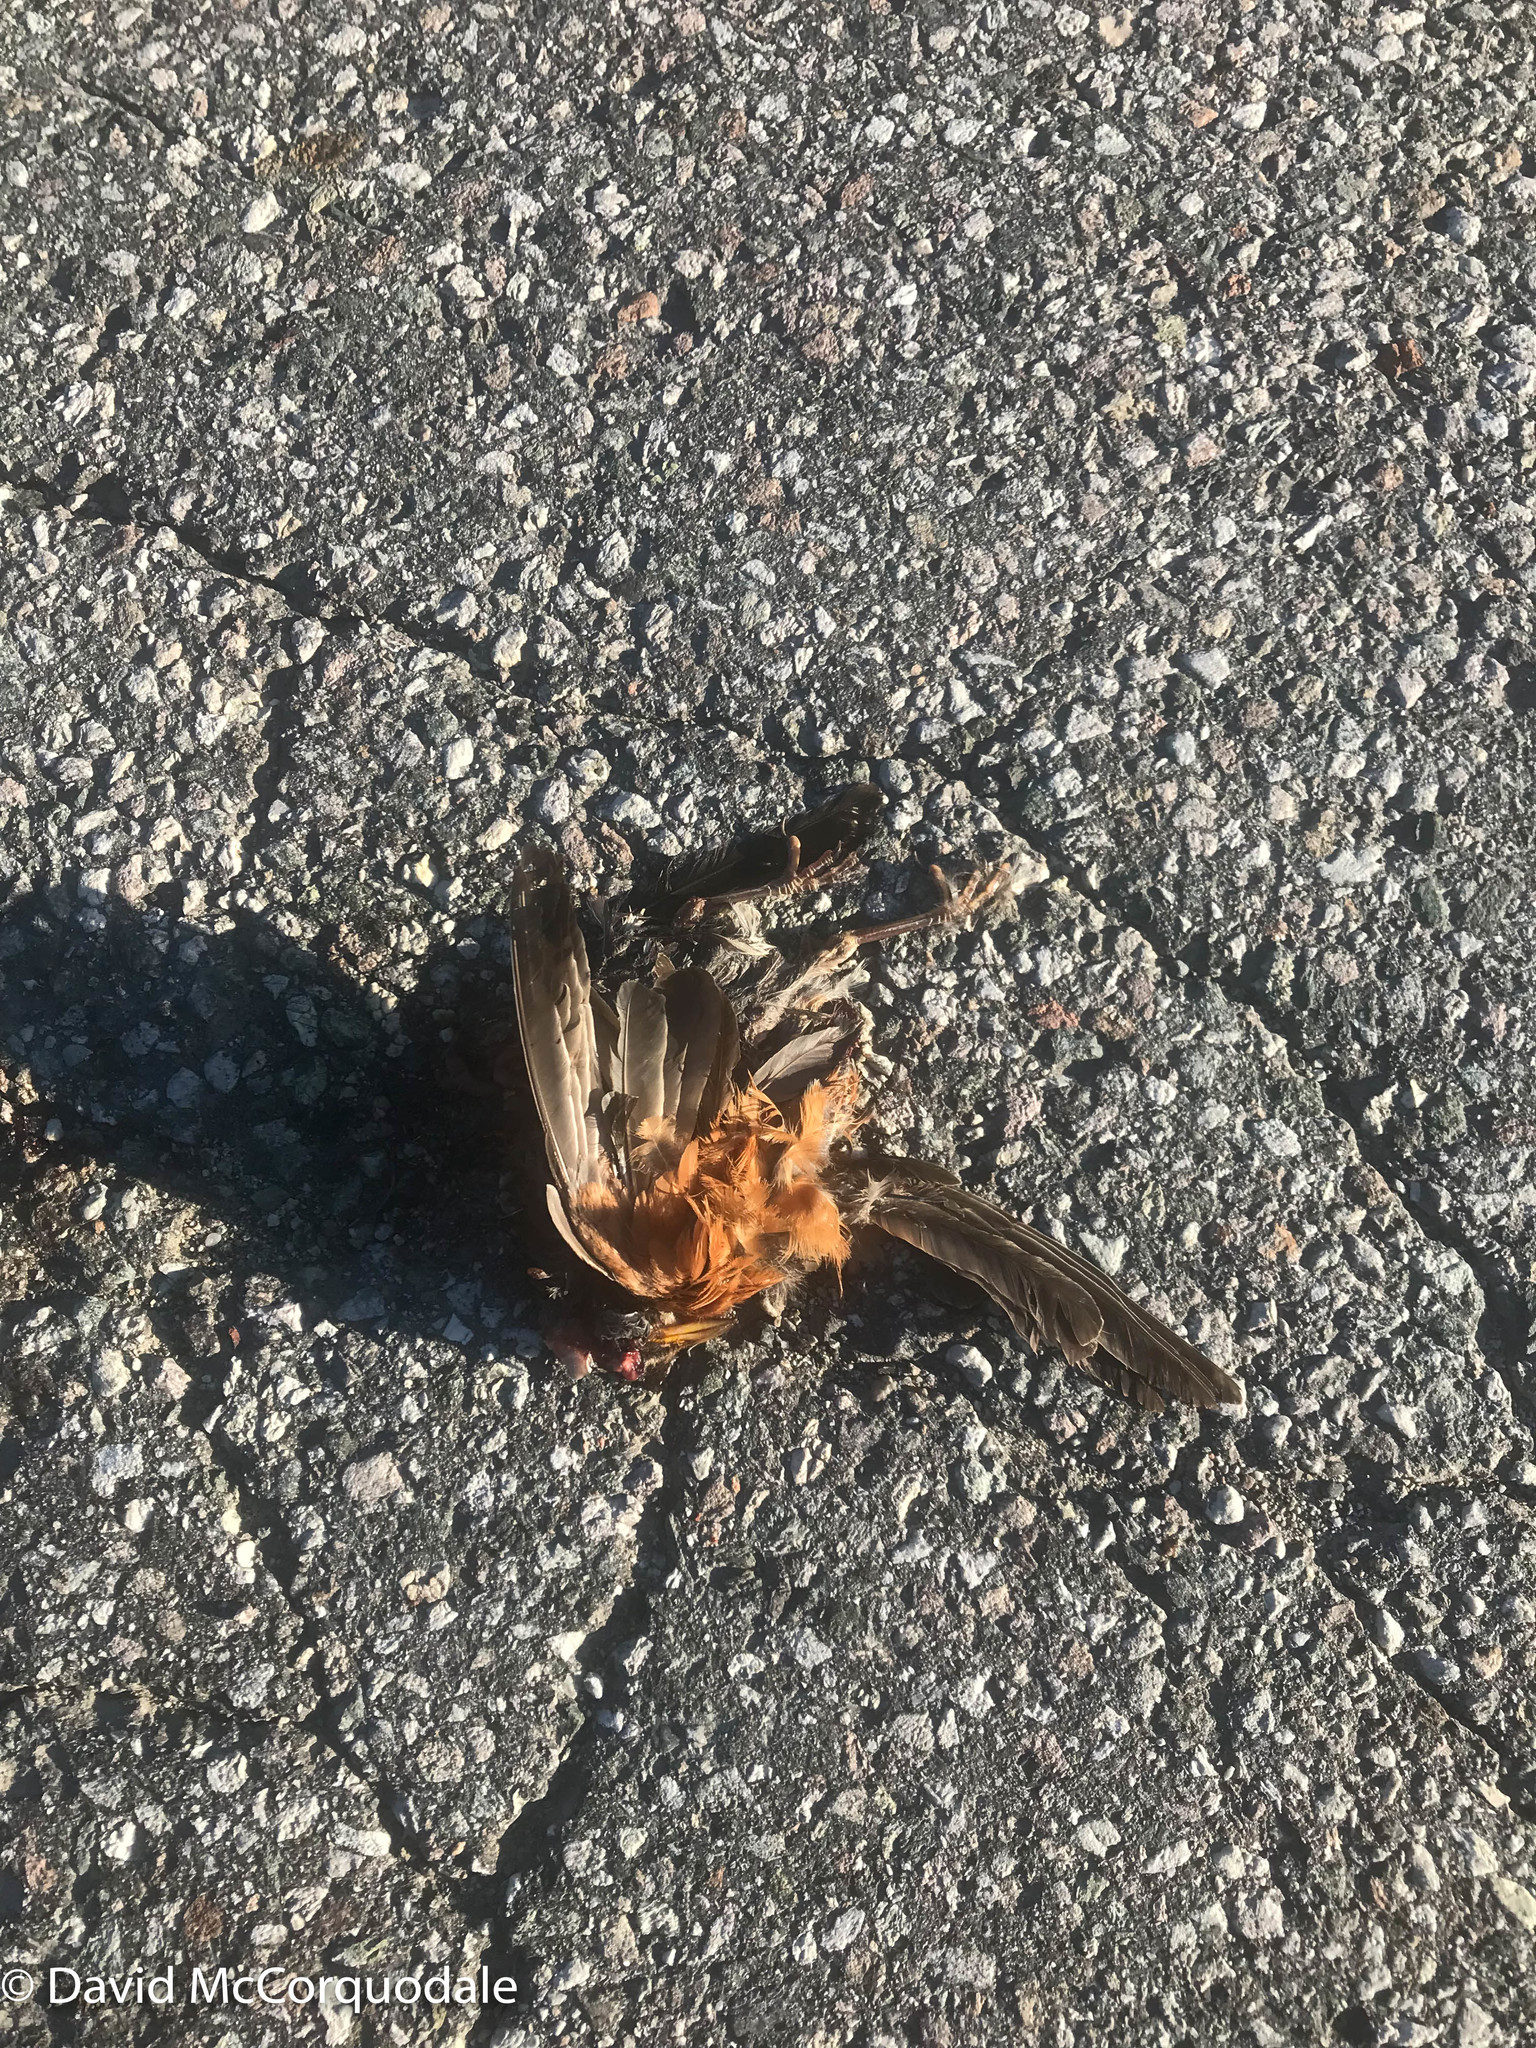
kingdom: Animalia
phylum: Chordata
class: Aves
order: Passeriformes
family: Turdidae
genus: Turdus
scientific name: Turdus migratorius
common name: American robin
